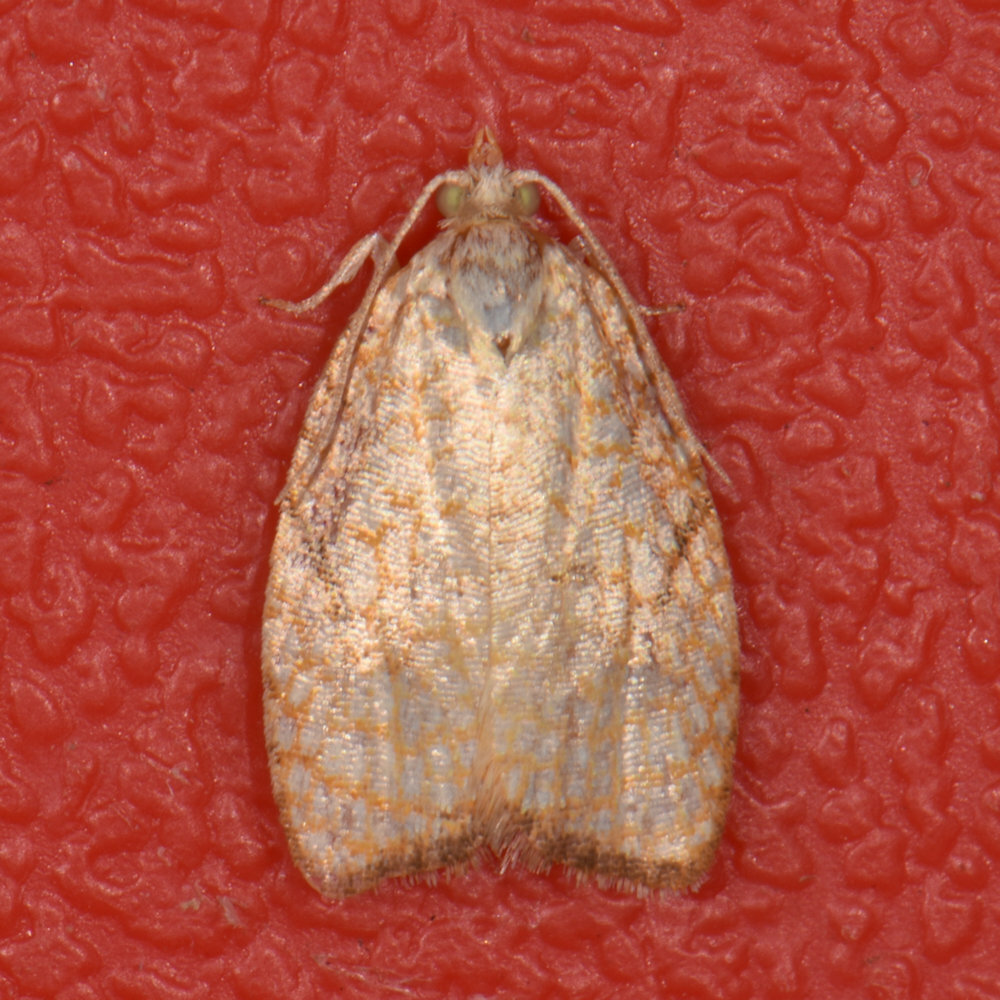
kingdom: Animalia
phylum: Arthropoda
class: Insecta
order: Lepidoptera
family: Tortricidae
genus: Acleris
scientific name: Acleris forsskaleana
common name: Maple button
